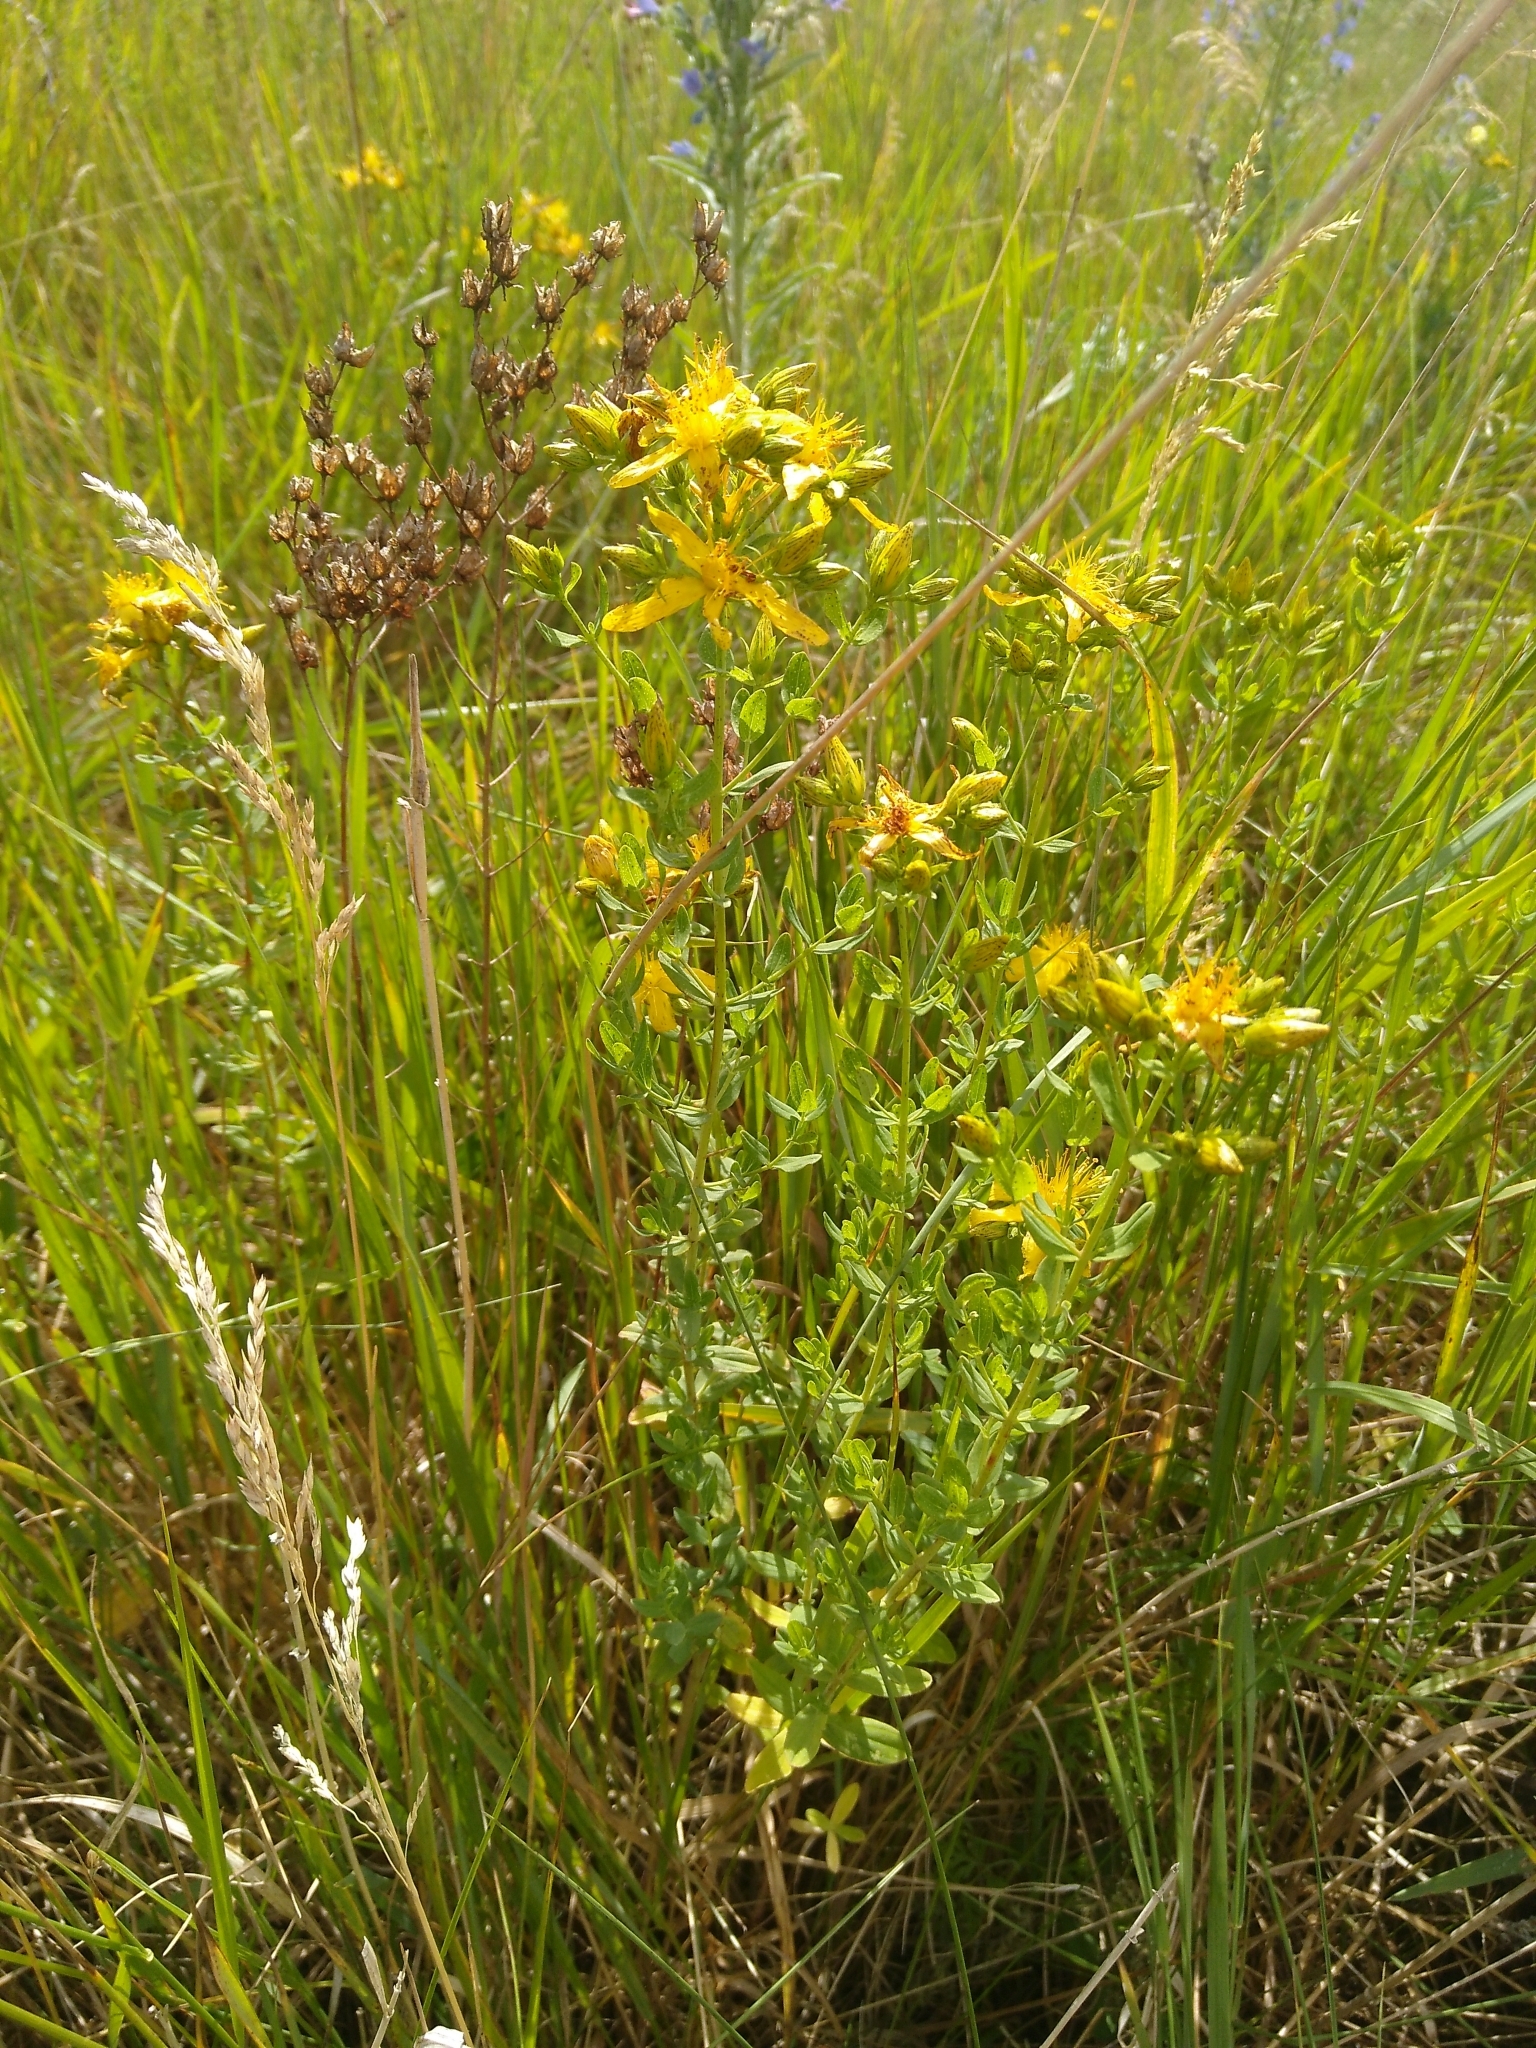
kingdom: Plantae
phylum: Tracheophyta
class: Magnoliopsida
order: Malpighiales
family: Hypericaceae
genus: Hypericum
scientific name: Hypericum perforatum
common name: Common st. johnswort
